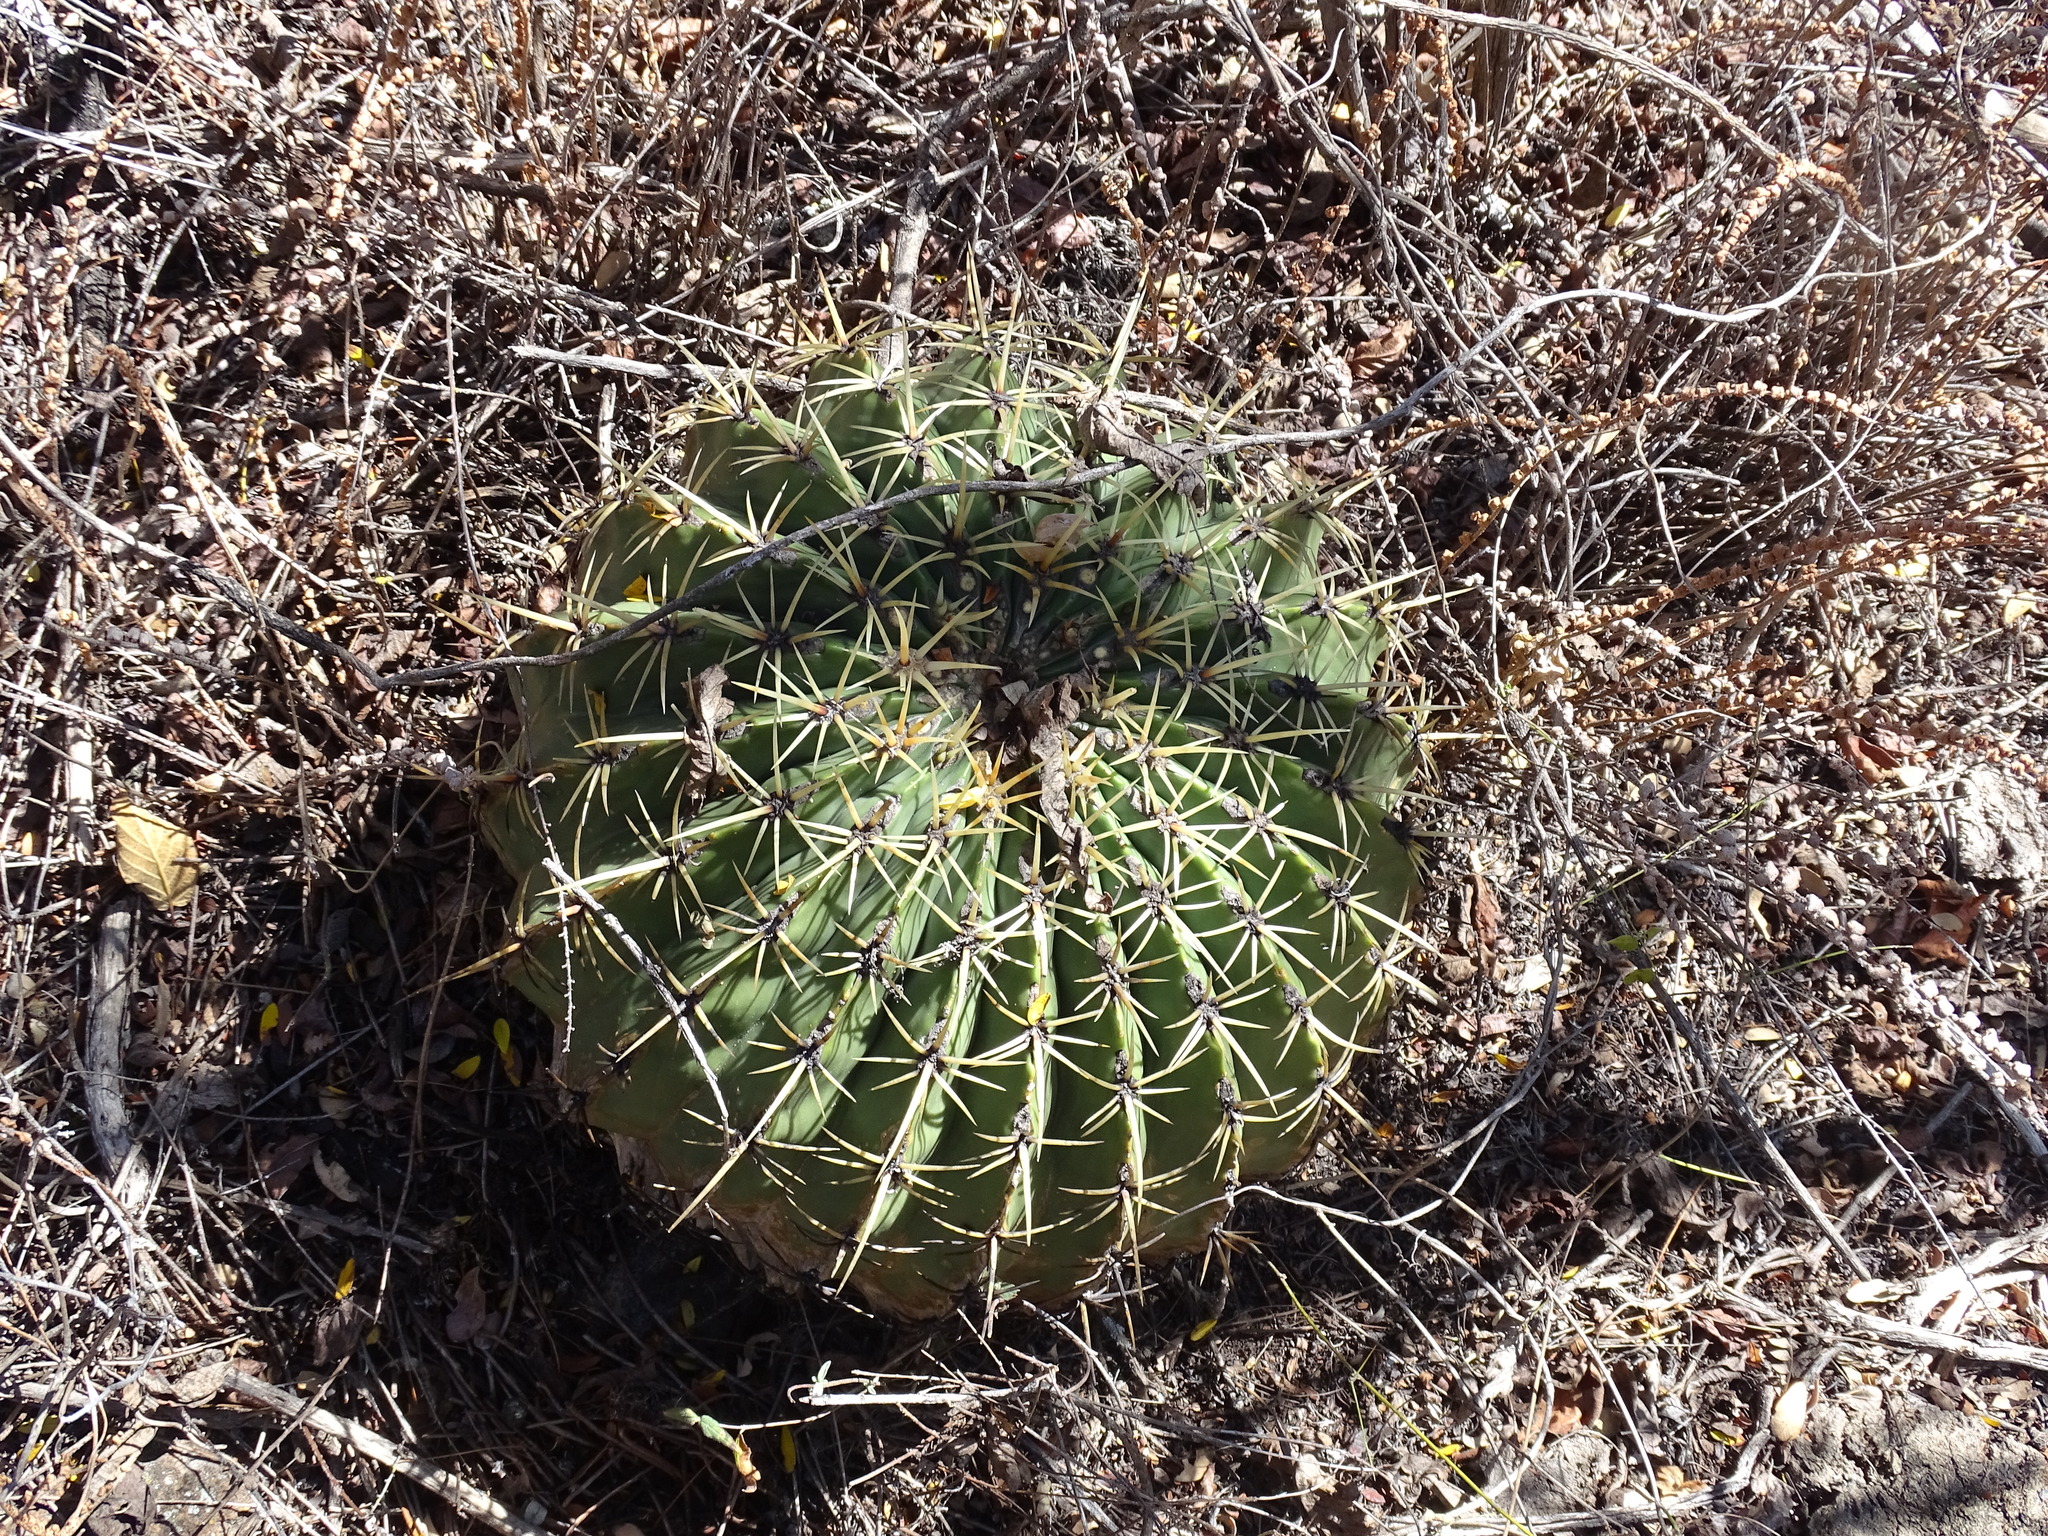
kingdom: Plantae
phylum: Tracheophyta
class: Magnoliopsida
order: Caryophyllales
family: Cactaceae
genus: Bisnaga
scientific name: Bisnaga histrix
